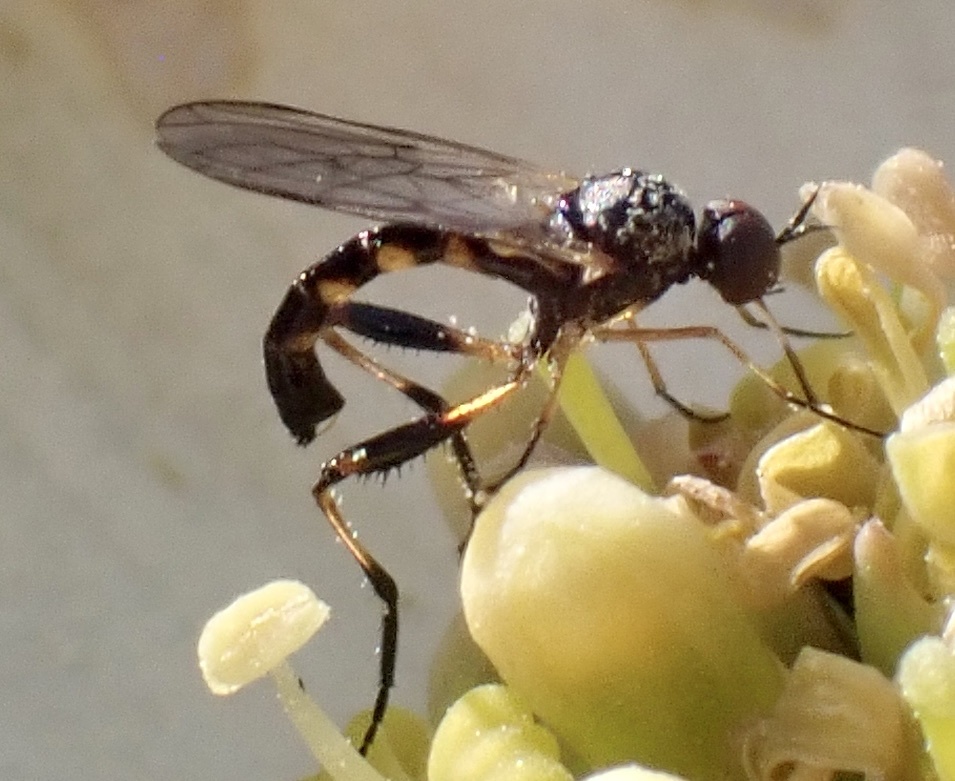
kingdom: Animalia
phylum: Arthropoda
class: Insecta
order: Diptera
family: Empididae
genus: Empis
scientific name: Empis leptogastra
